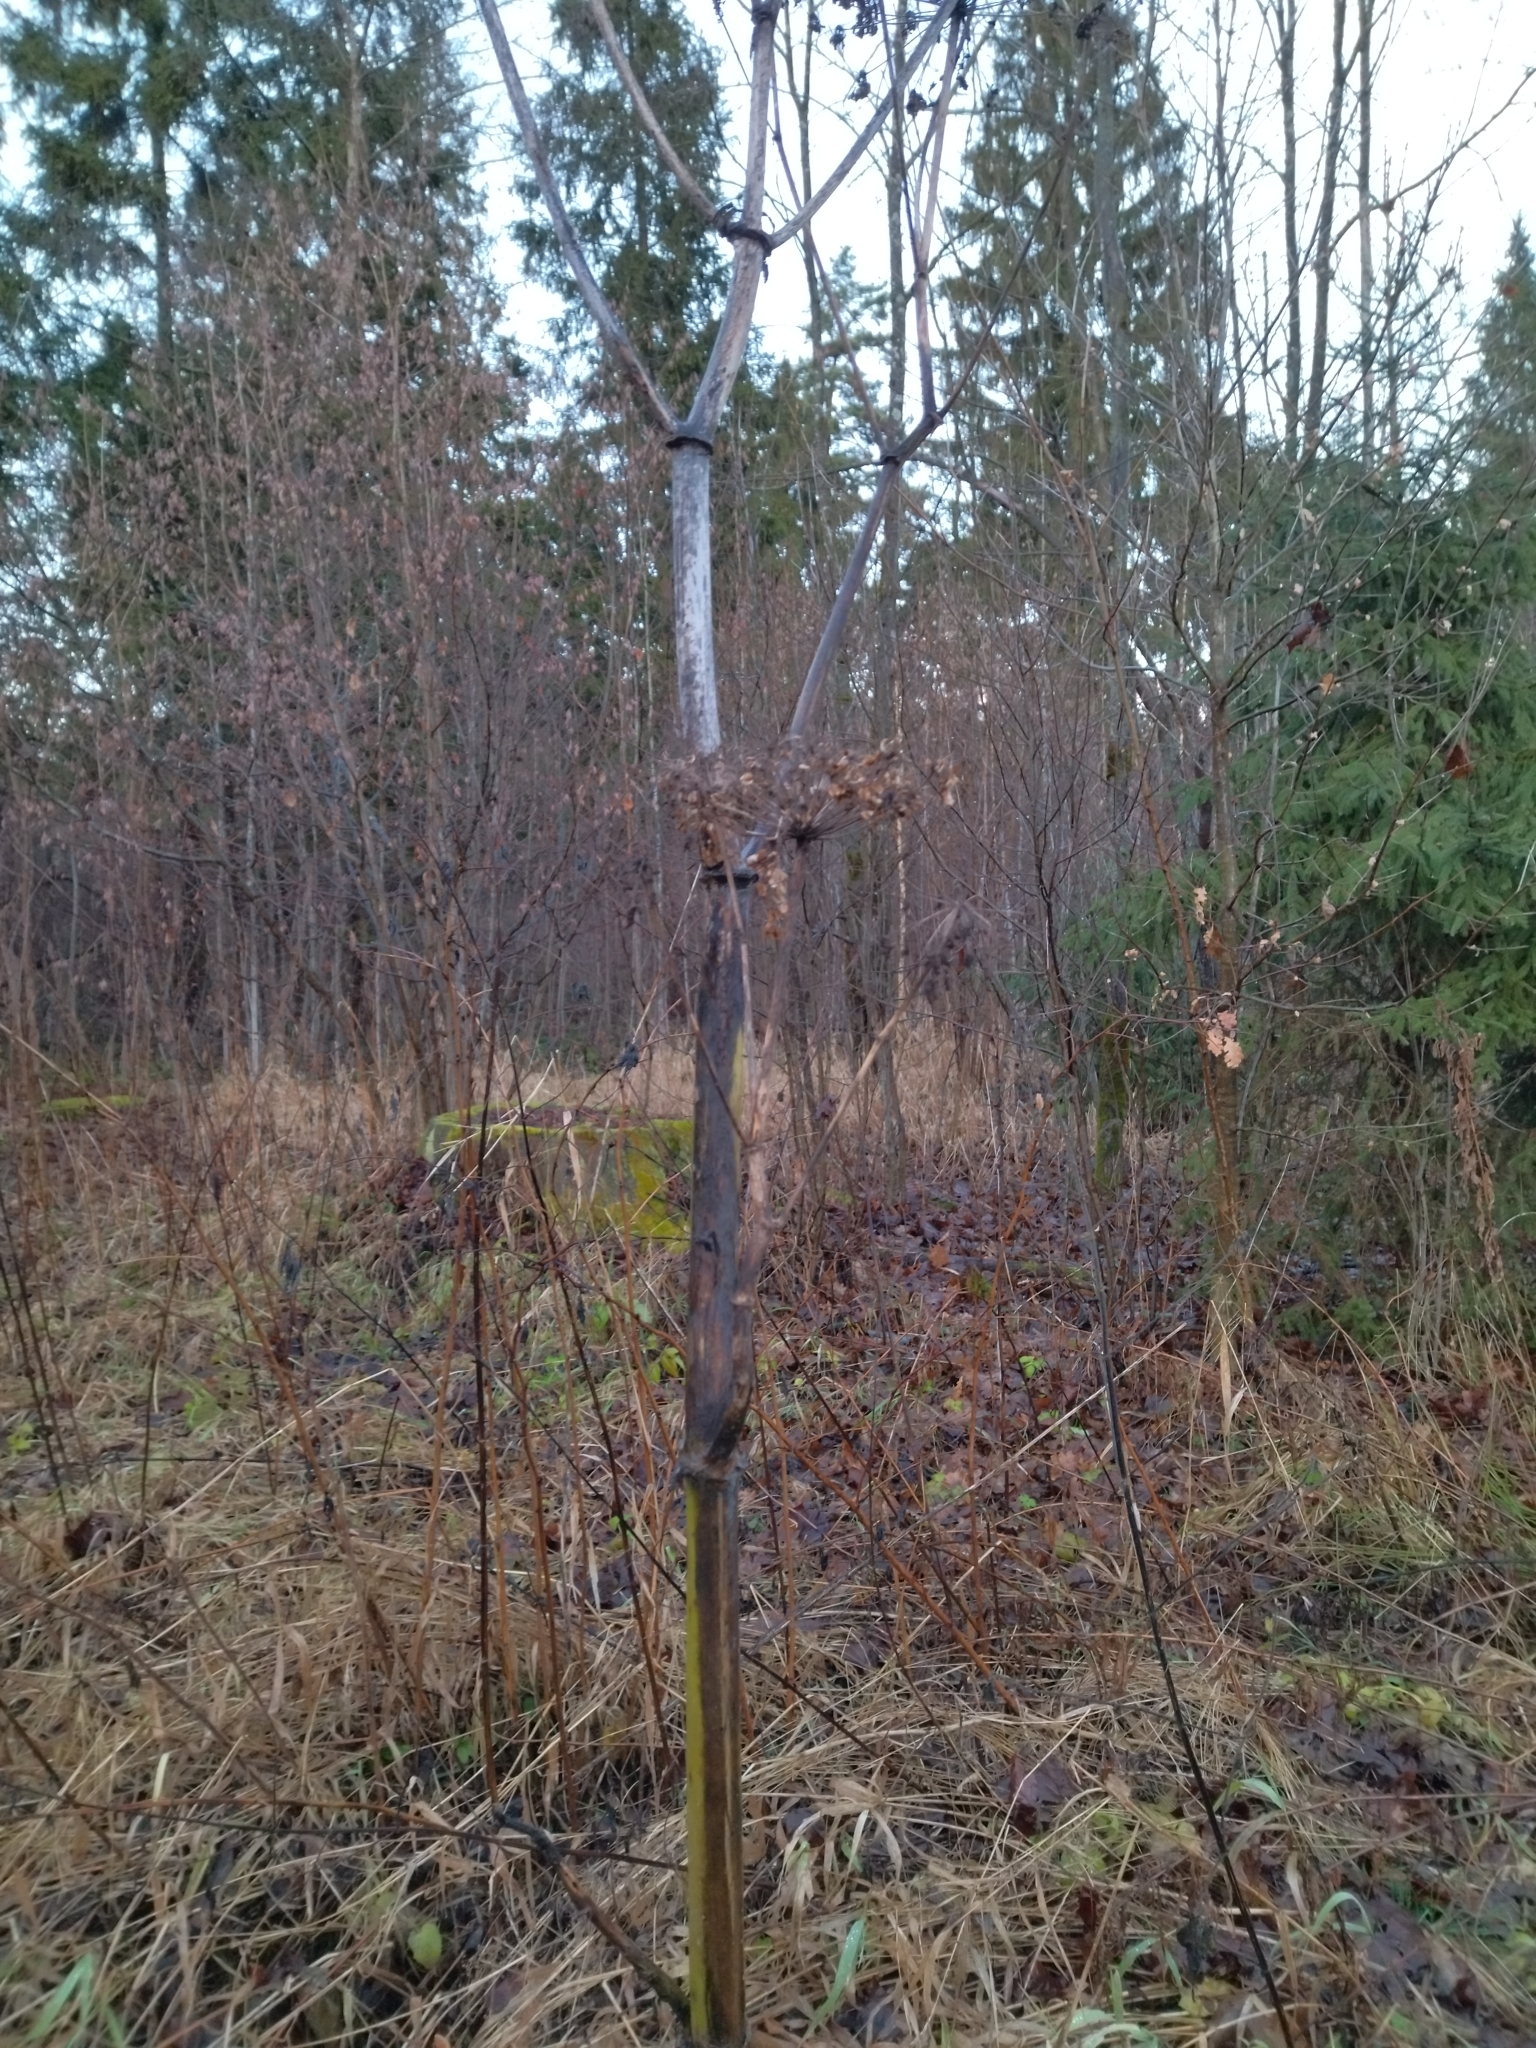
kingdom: Plantae
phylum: Tracheophyta
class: Magnoliopsida
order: Apiales
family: Apiaceae
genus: Heracleum
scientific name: Heracleum sosnowskyi
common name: Sosnowsky's hogweed
